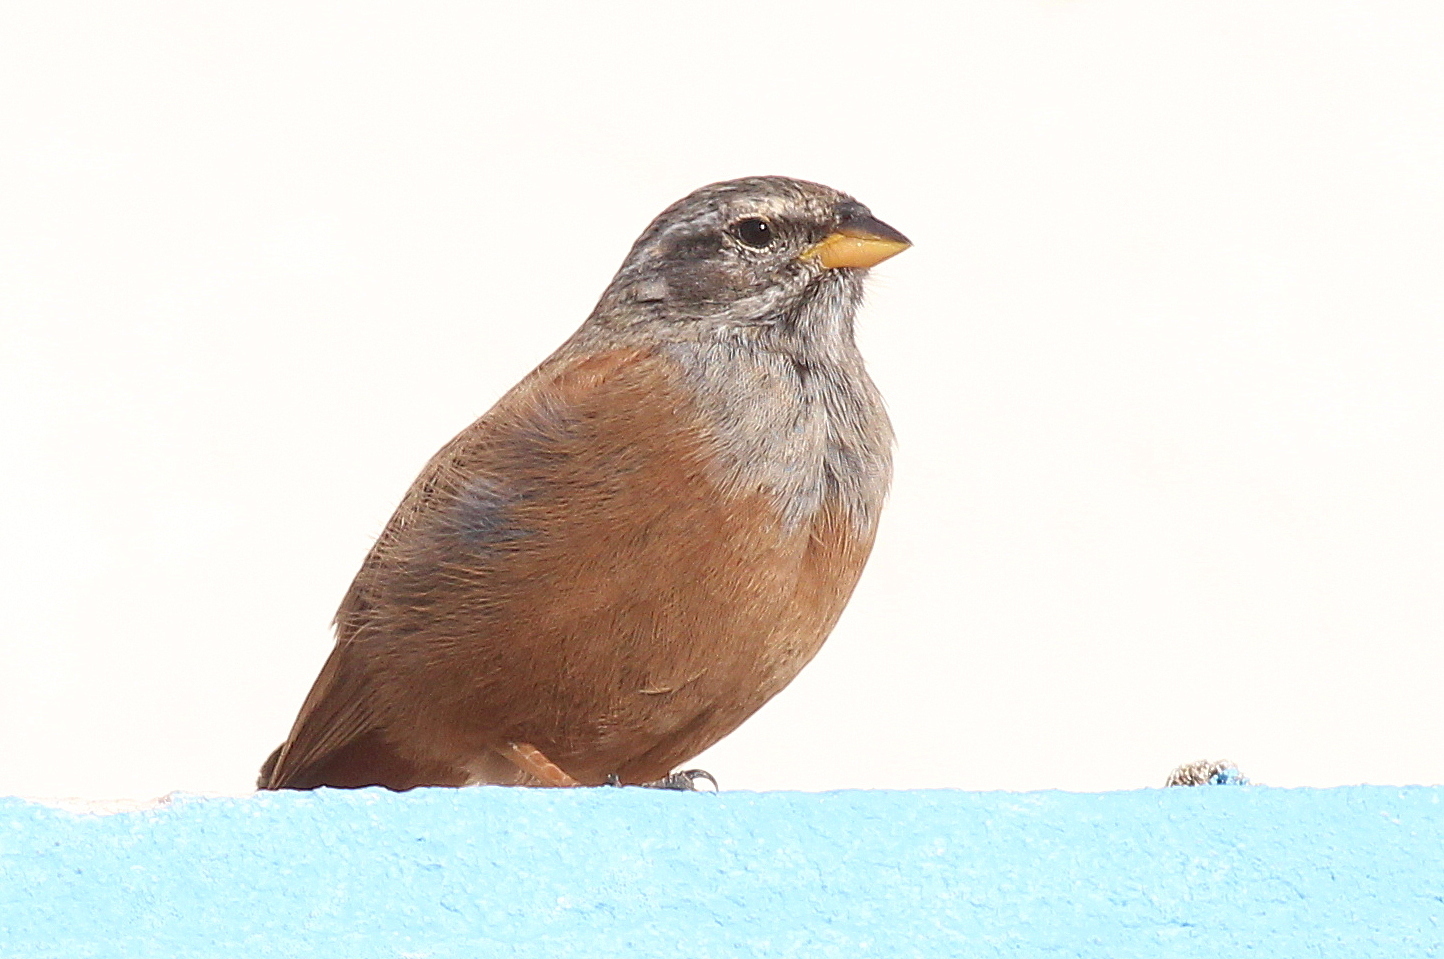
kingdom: Animalia
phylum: Chordata
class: Aves
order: Passeriformes
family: Emberizidae
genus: Emberiza
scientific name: Emberiza sahari
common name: House bunting
